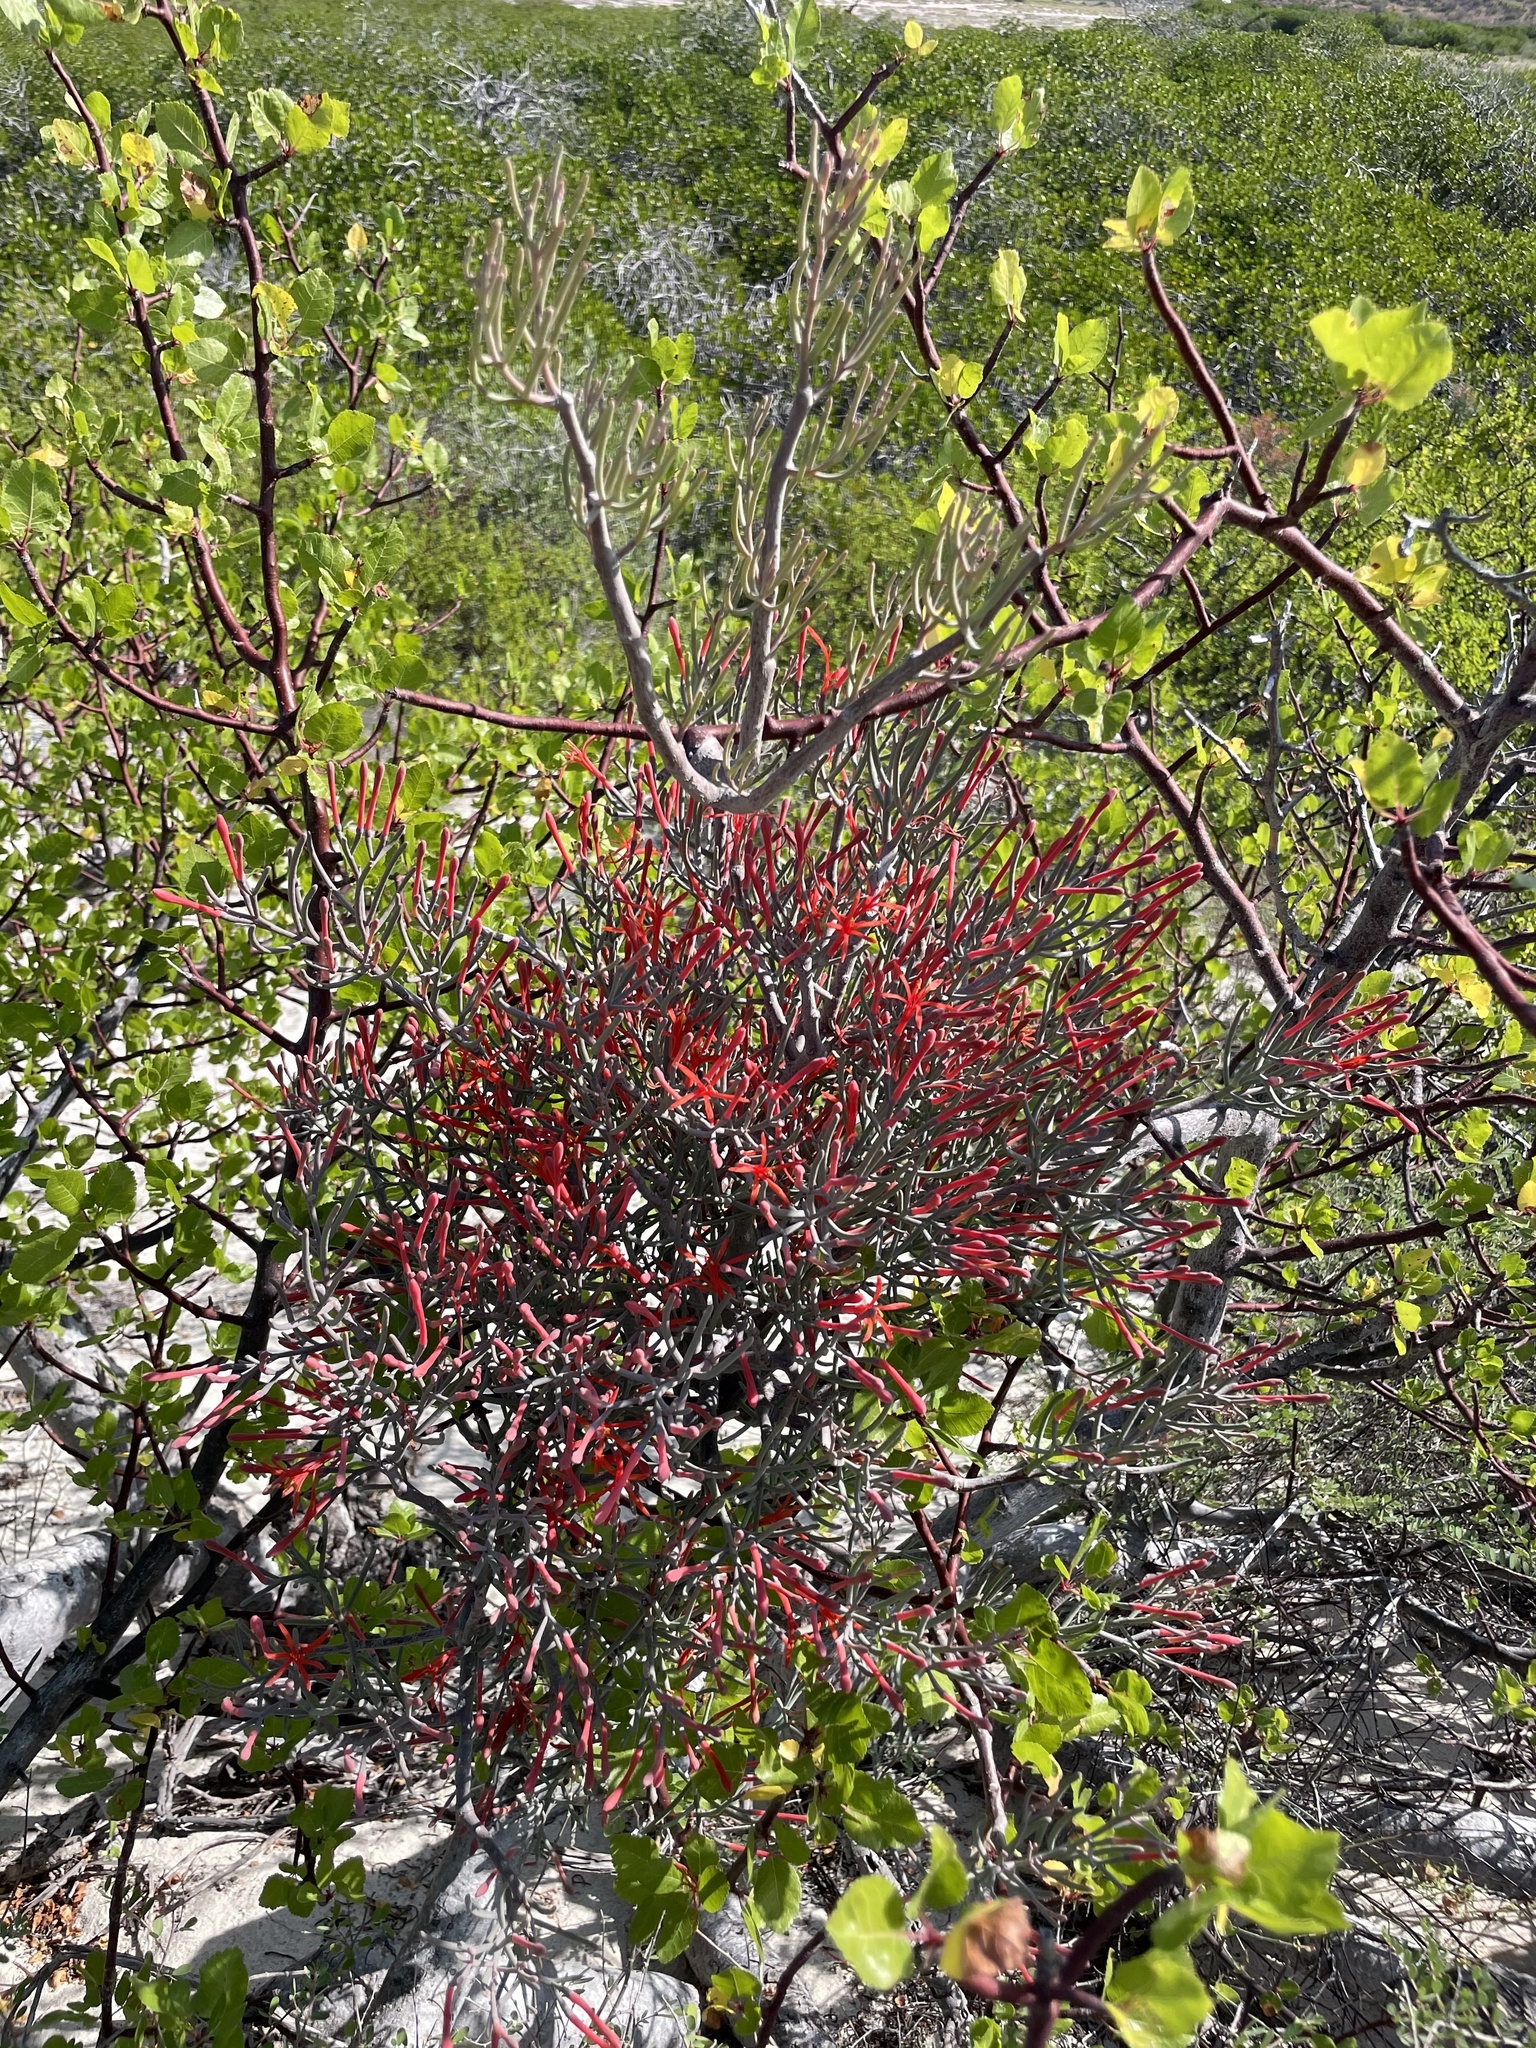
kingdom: Plantae
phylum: Tracheophyta
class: Magnoliopsida
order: Santalales
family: Loranthaceae
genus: Psittacanthus
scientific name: Psittacanthus sonorae
